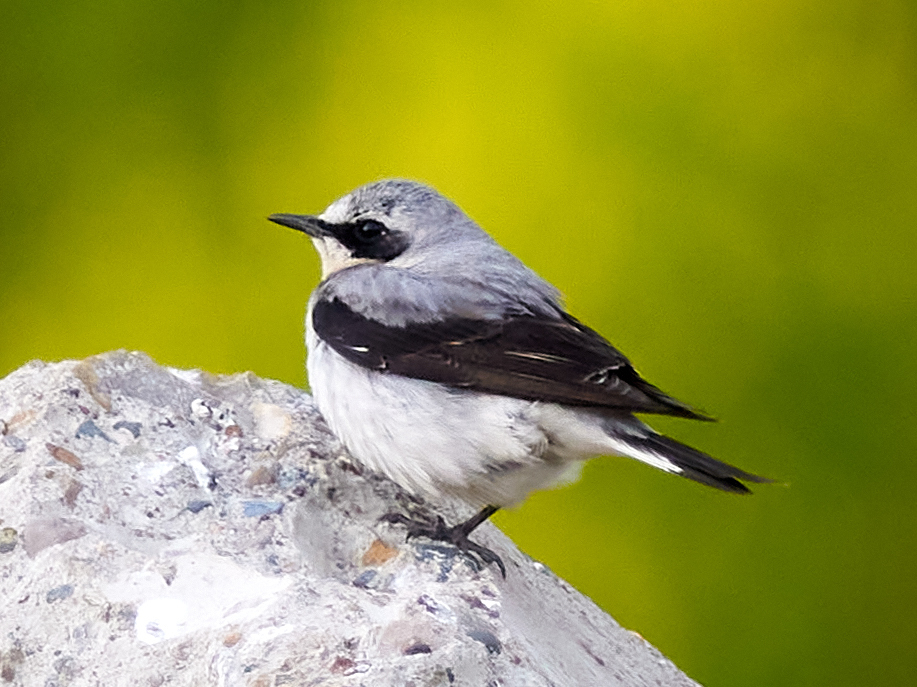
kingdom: Animalia
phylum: Chordata
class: Aves
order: Passeriformes
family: Muscicapidae
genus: Oenanthe
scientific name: Oenanthe oenanthe
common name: Northern wheatear
